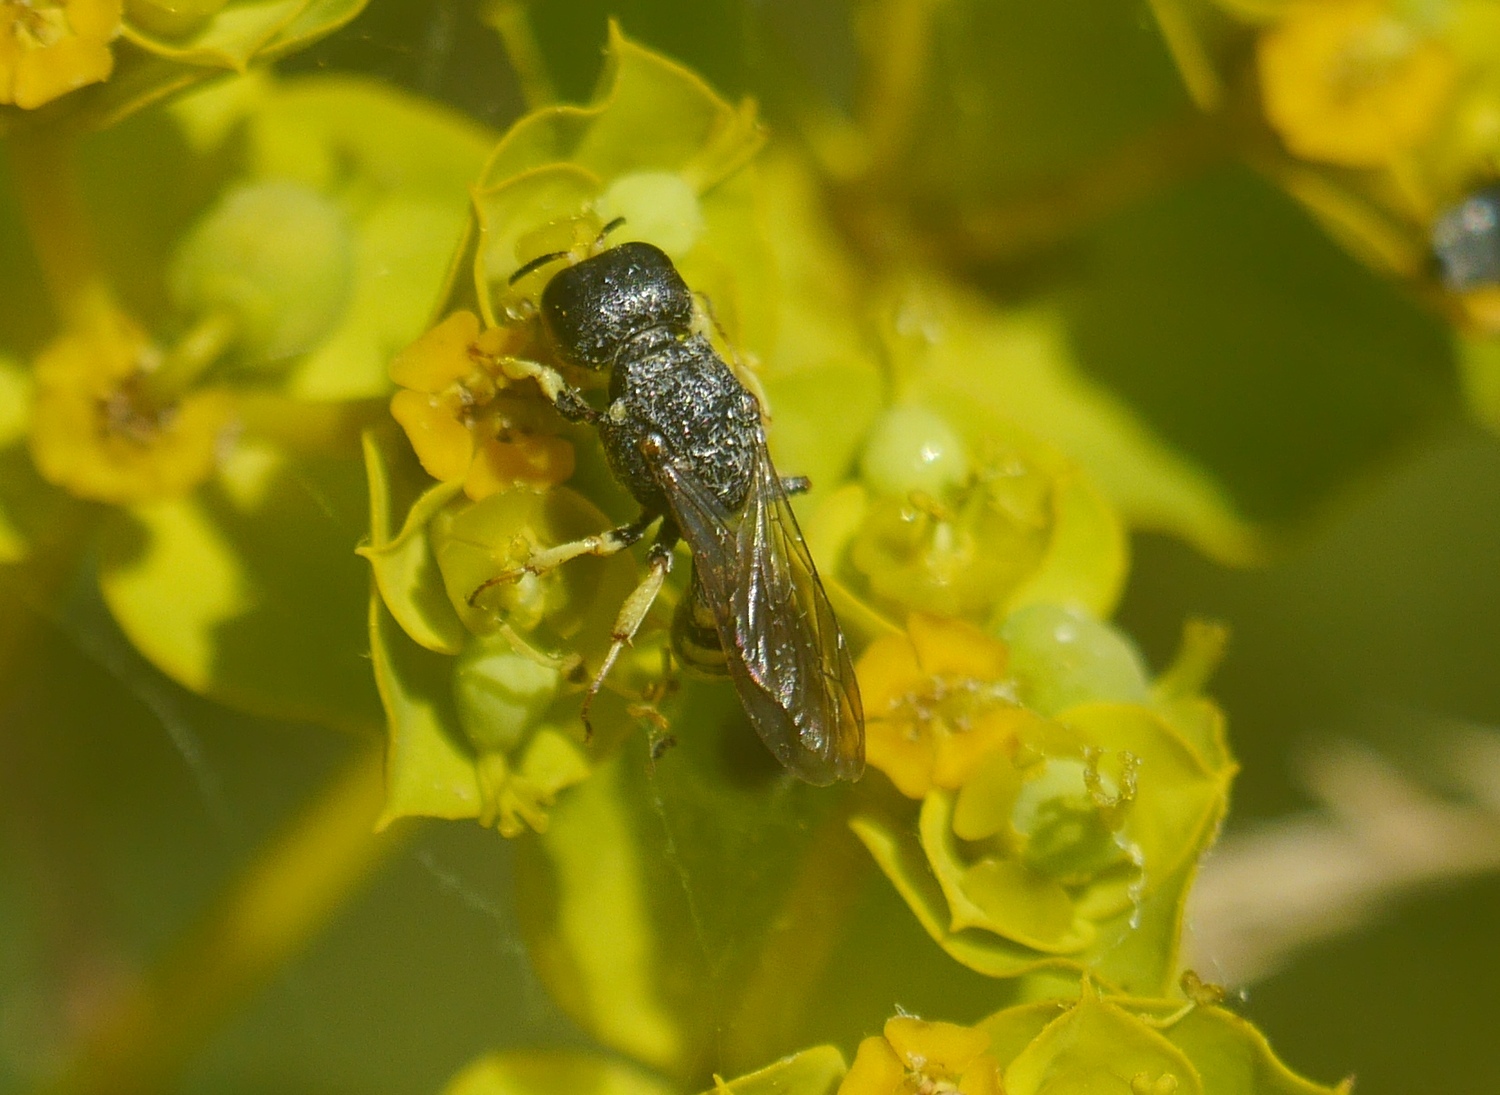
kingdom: Animalia
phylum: Arthropoda
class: Insecta
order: Hymenoptera
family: Crabronidae
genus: Lestica
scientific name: Lestica clypeata
